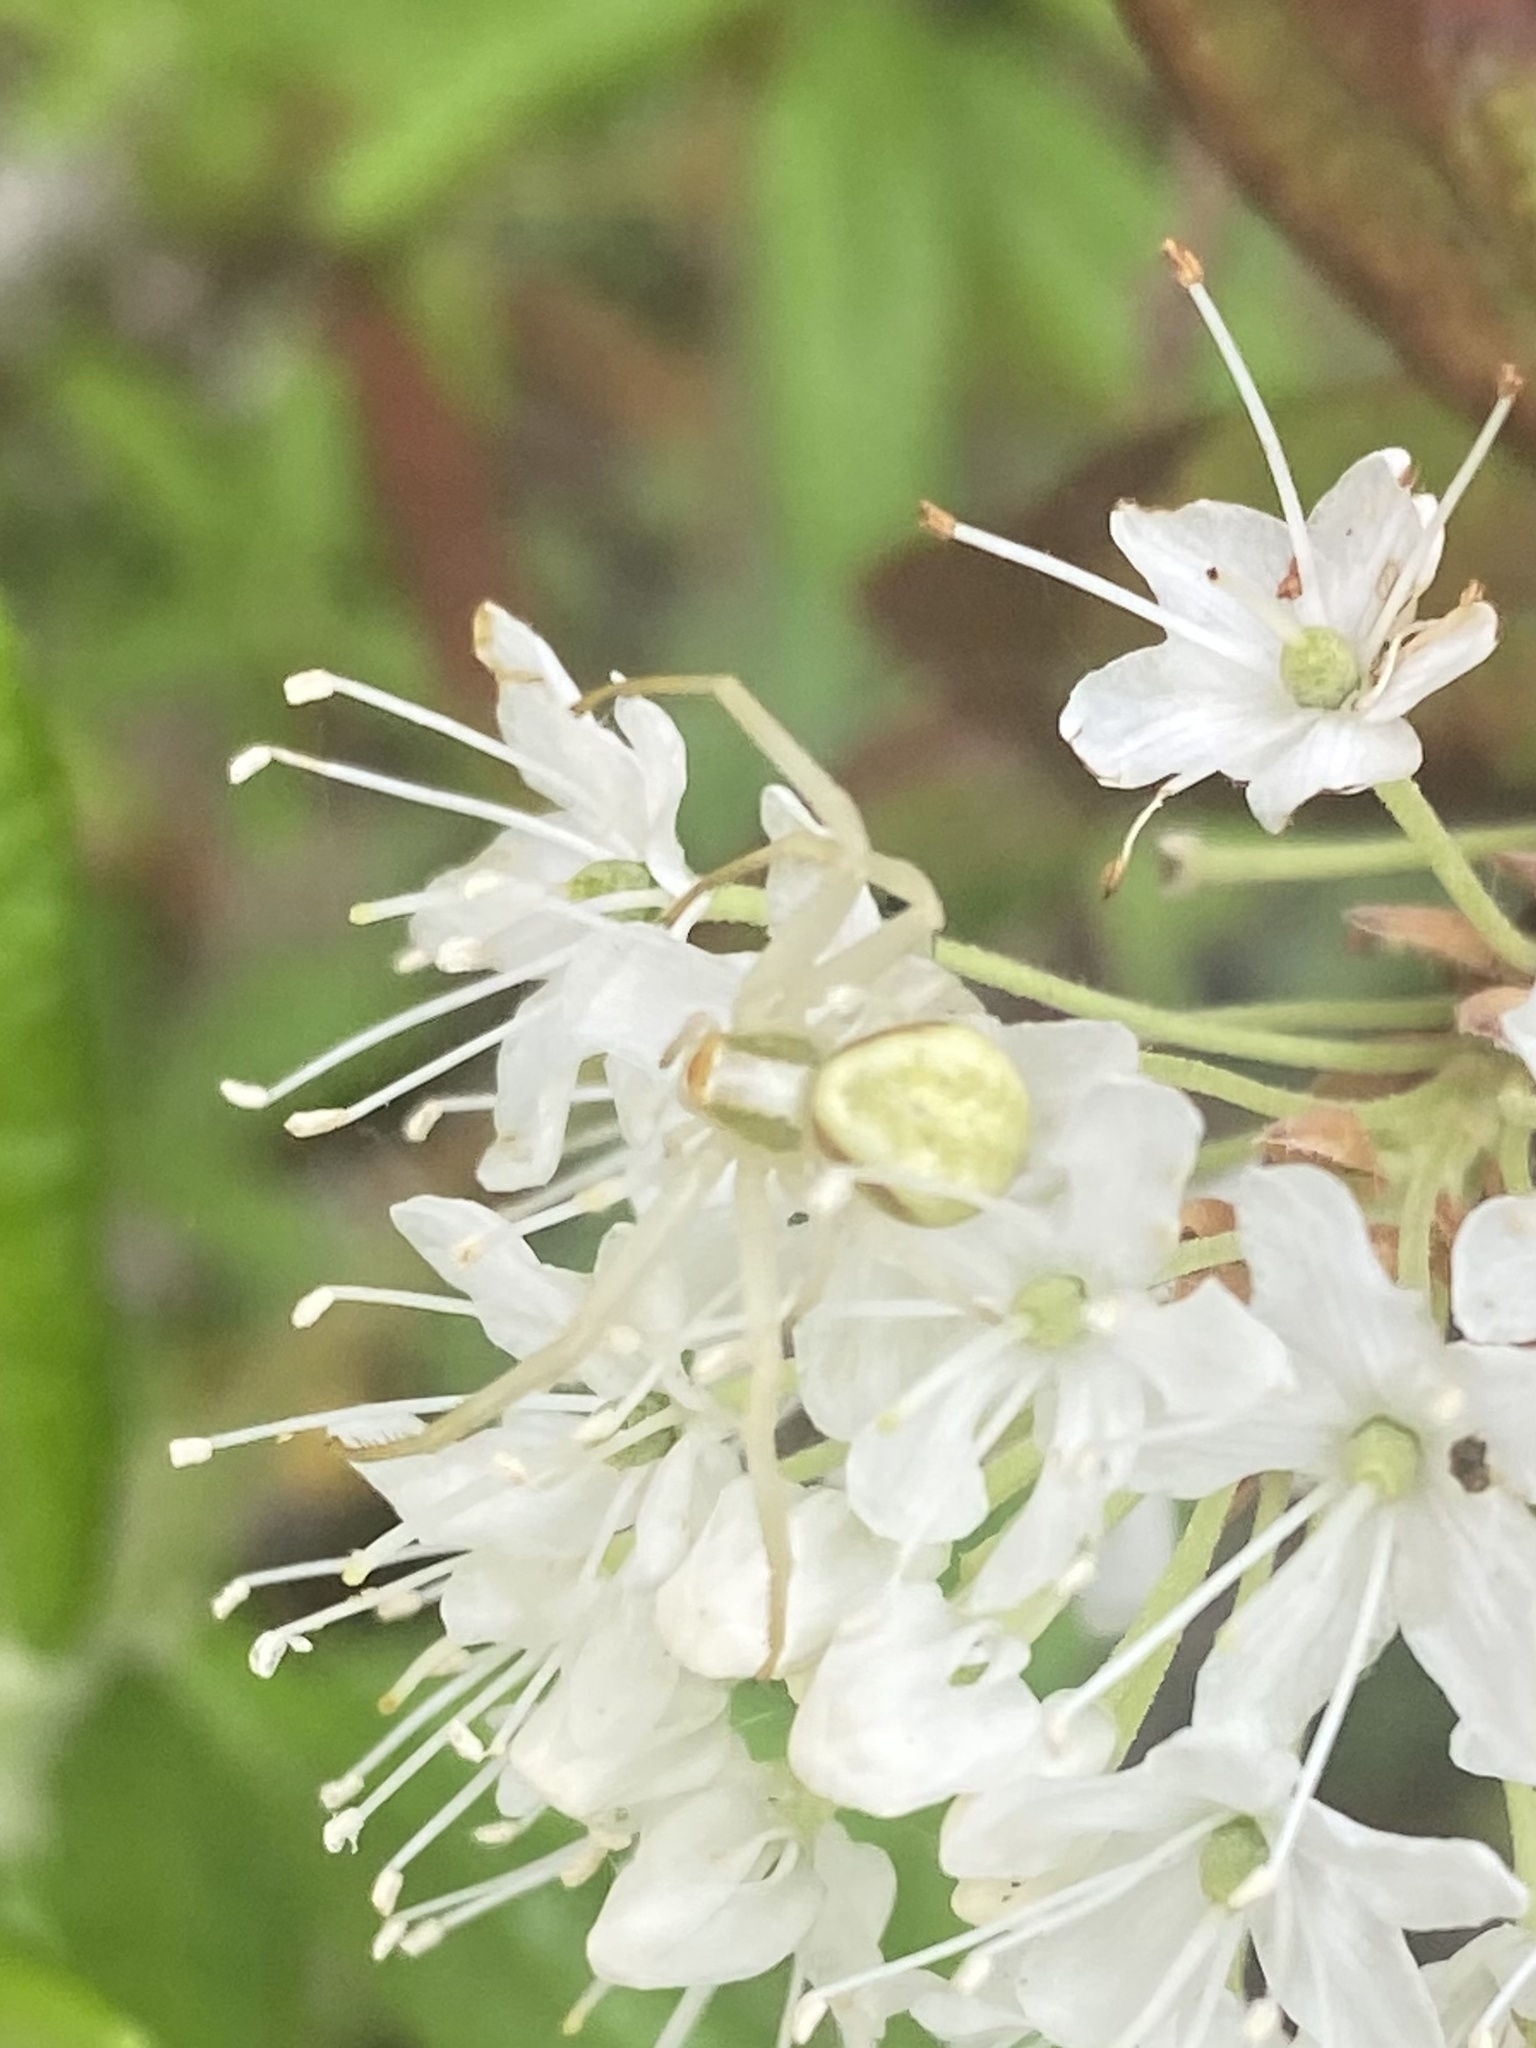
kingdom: Animalia
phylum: Arthropoda
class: Arachnida
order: Araneae
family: Thomisidae
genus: Misumena
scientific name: Misumena vatia
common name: Goldenrod crab spider
